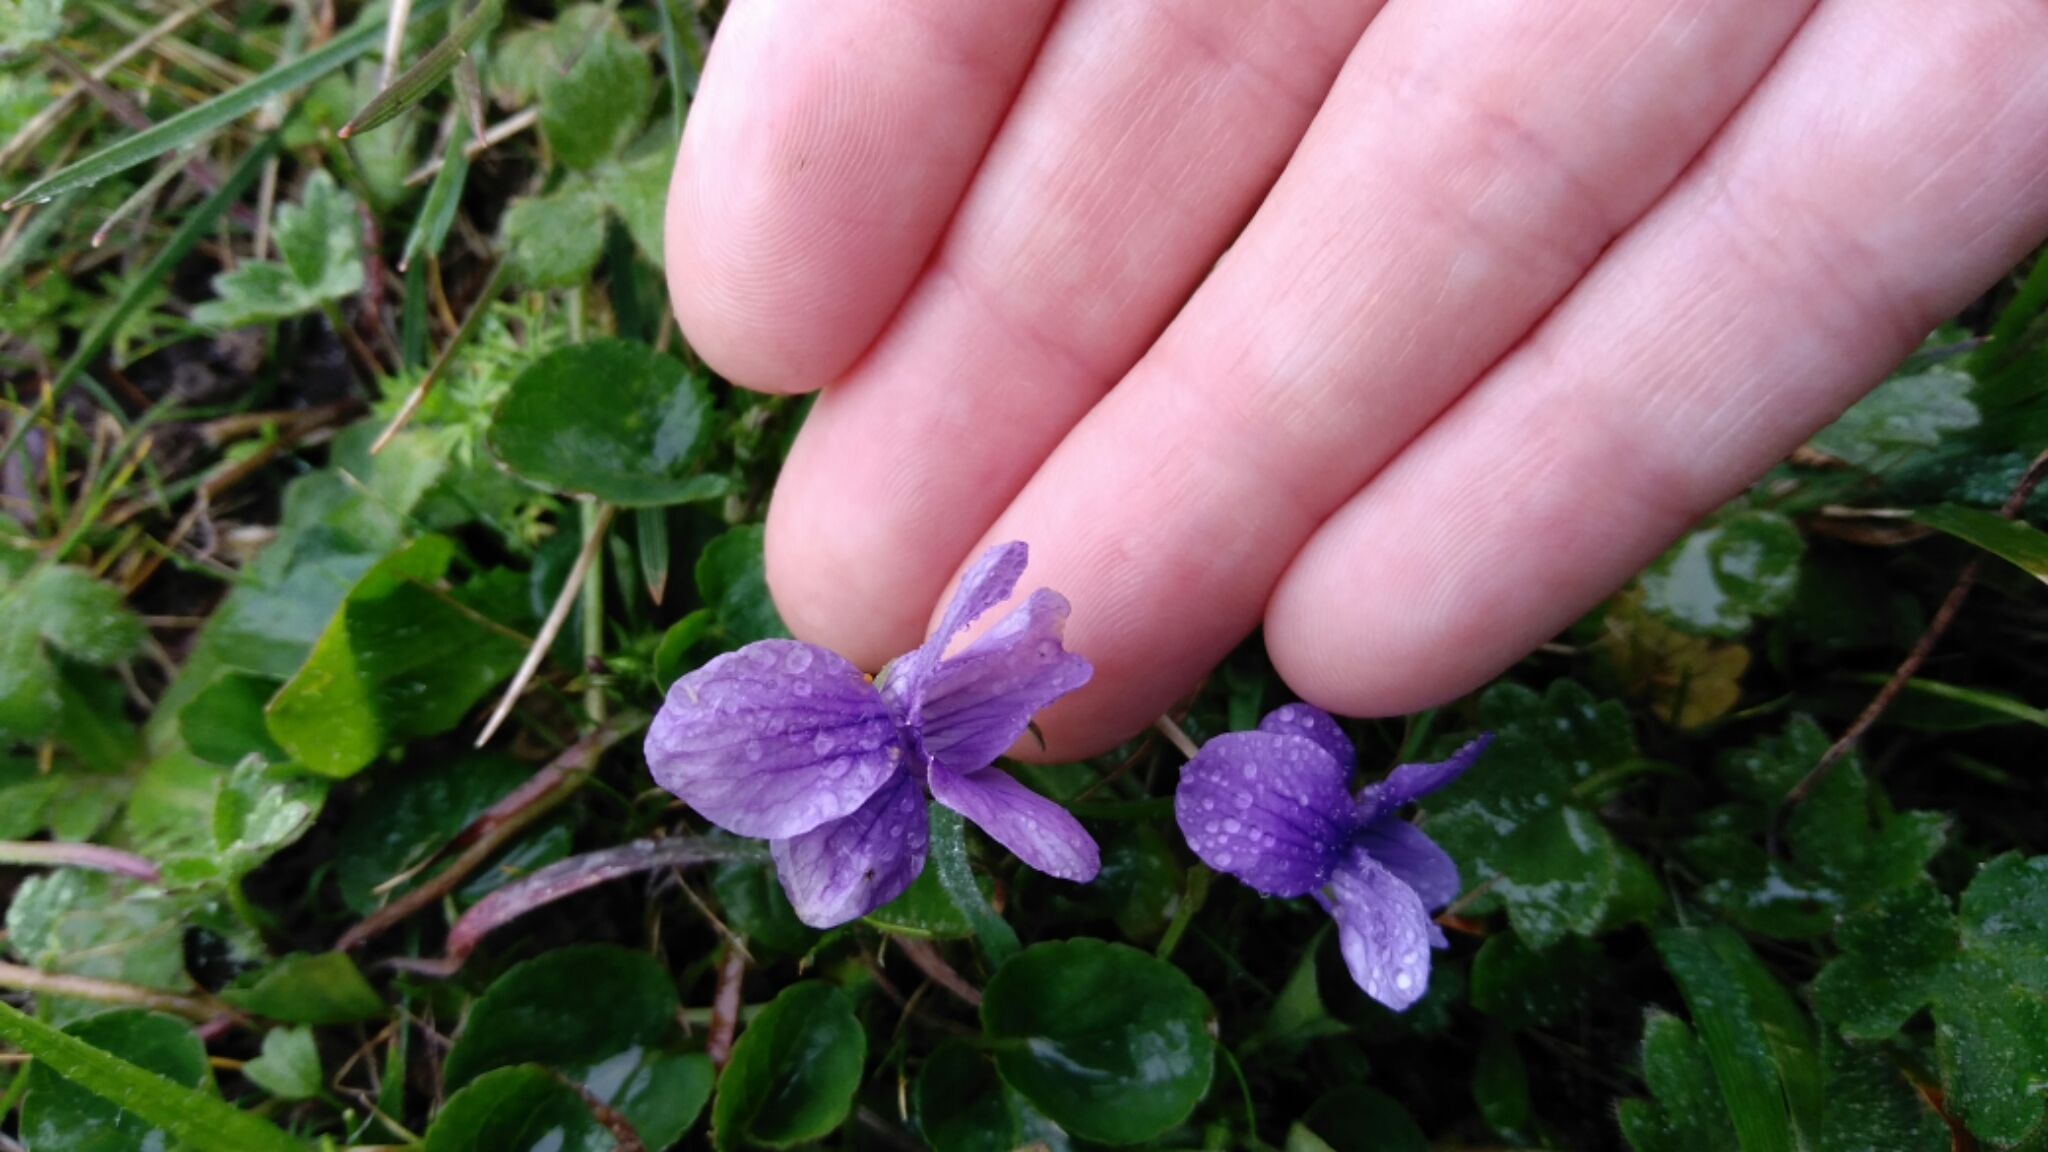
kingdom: Plantae
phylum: Tracheophyta
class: Magnoliopsida
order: Malpighiales
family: Violaceae
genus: Viola
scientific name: Viola adunca
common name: Sand violet
